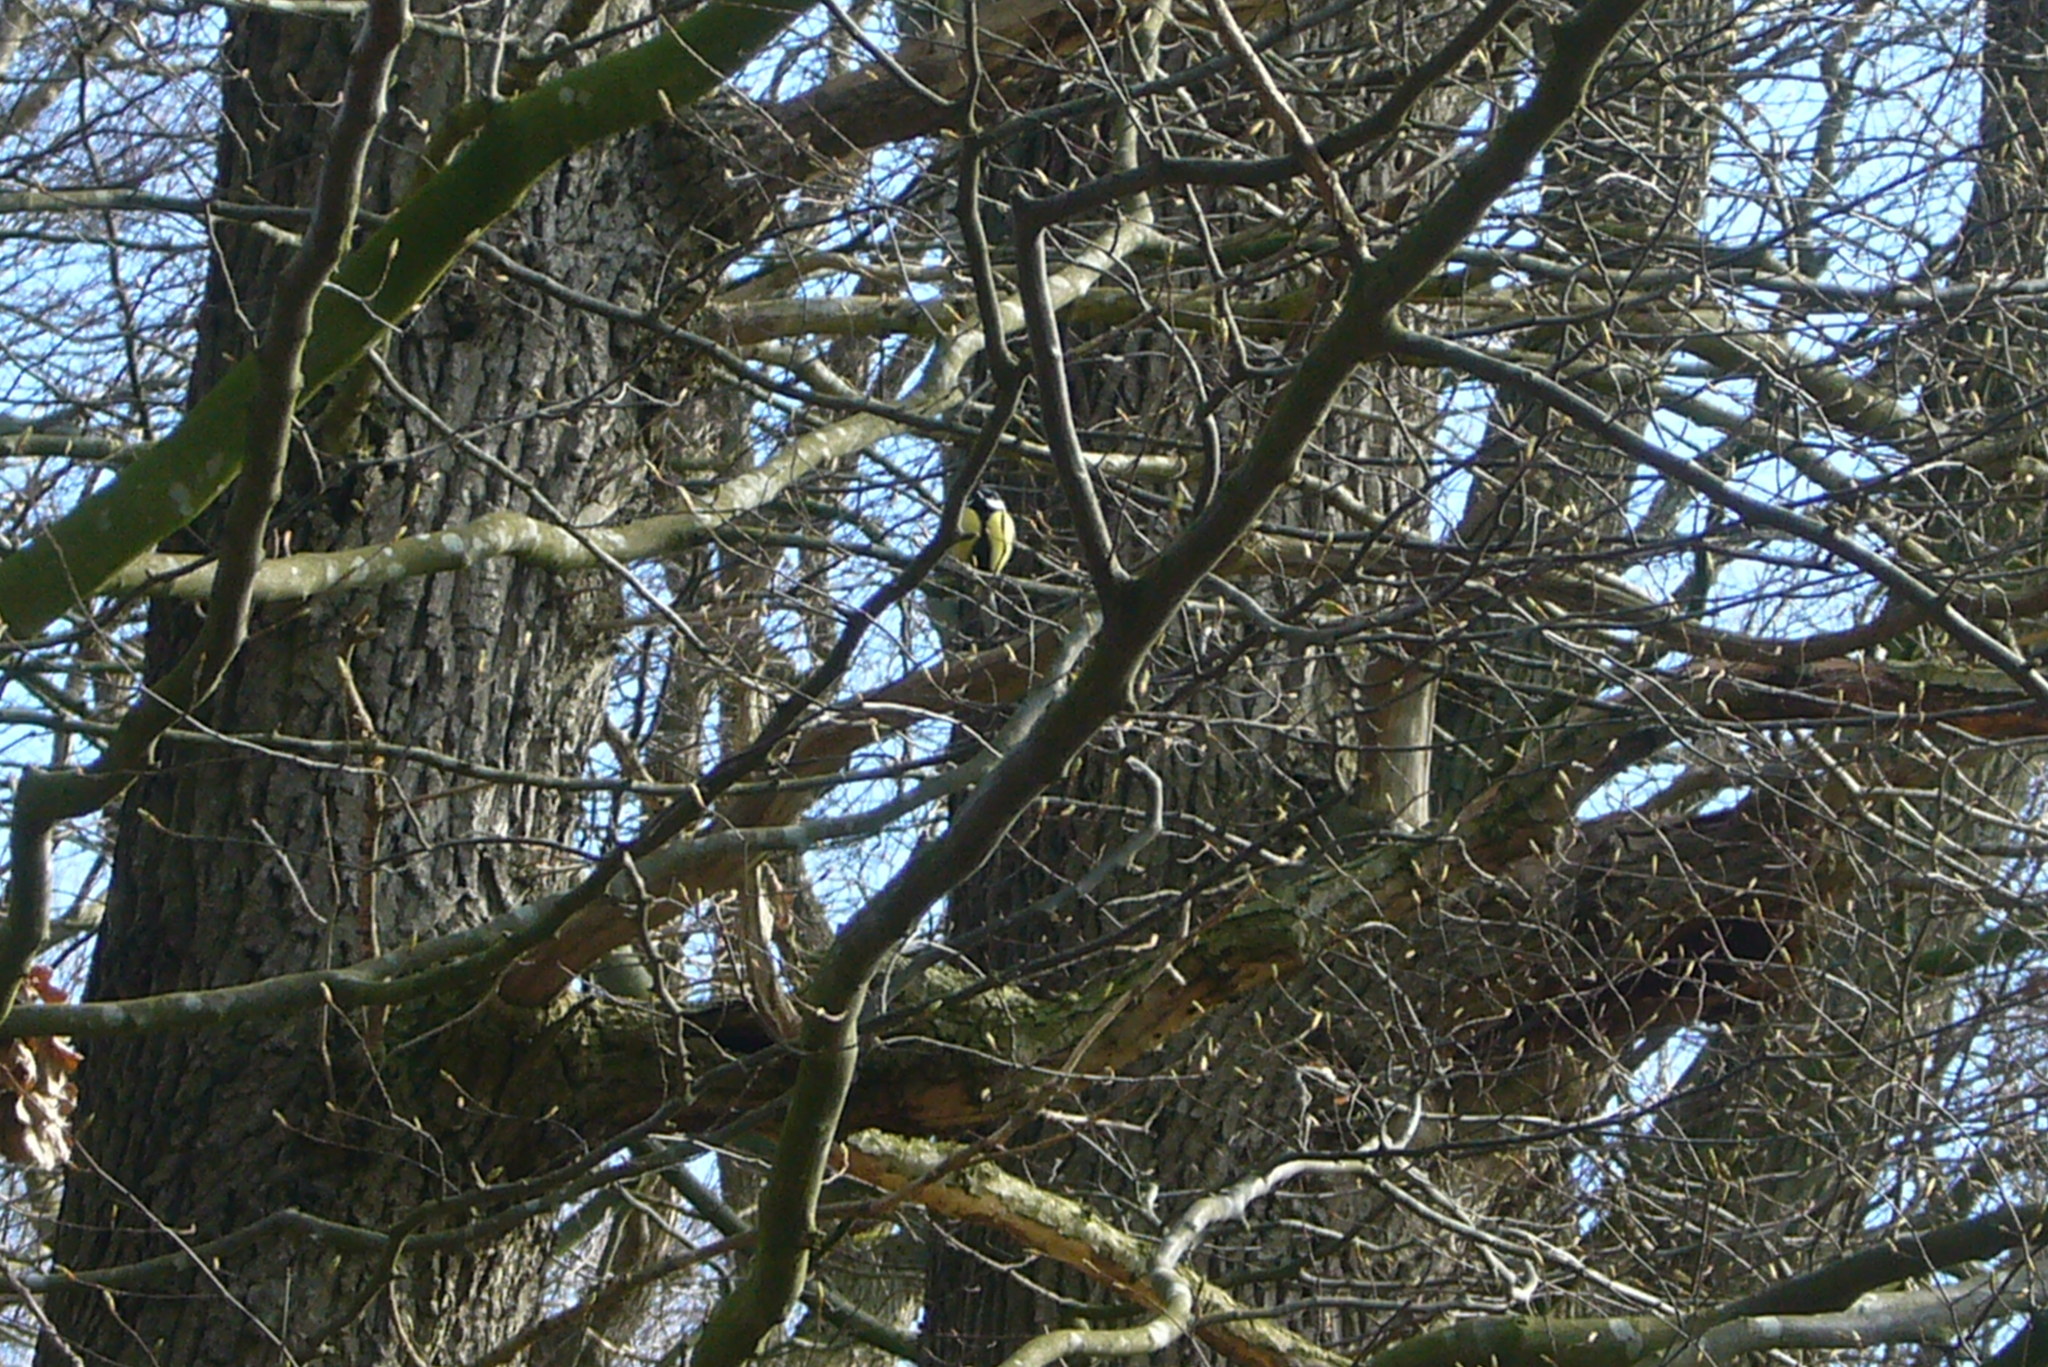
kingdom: Animalia
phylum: Chordata
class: Aves
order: Passeriformes
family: Paridae
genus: Parus
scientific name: Parus major
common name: Great tit
